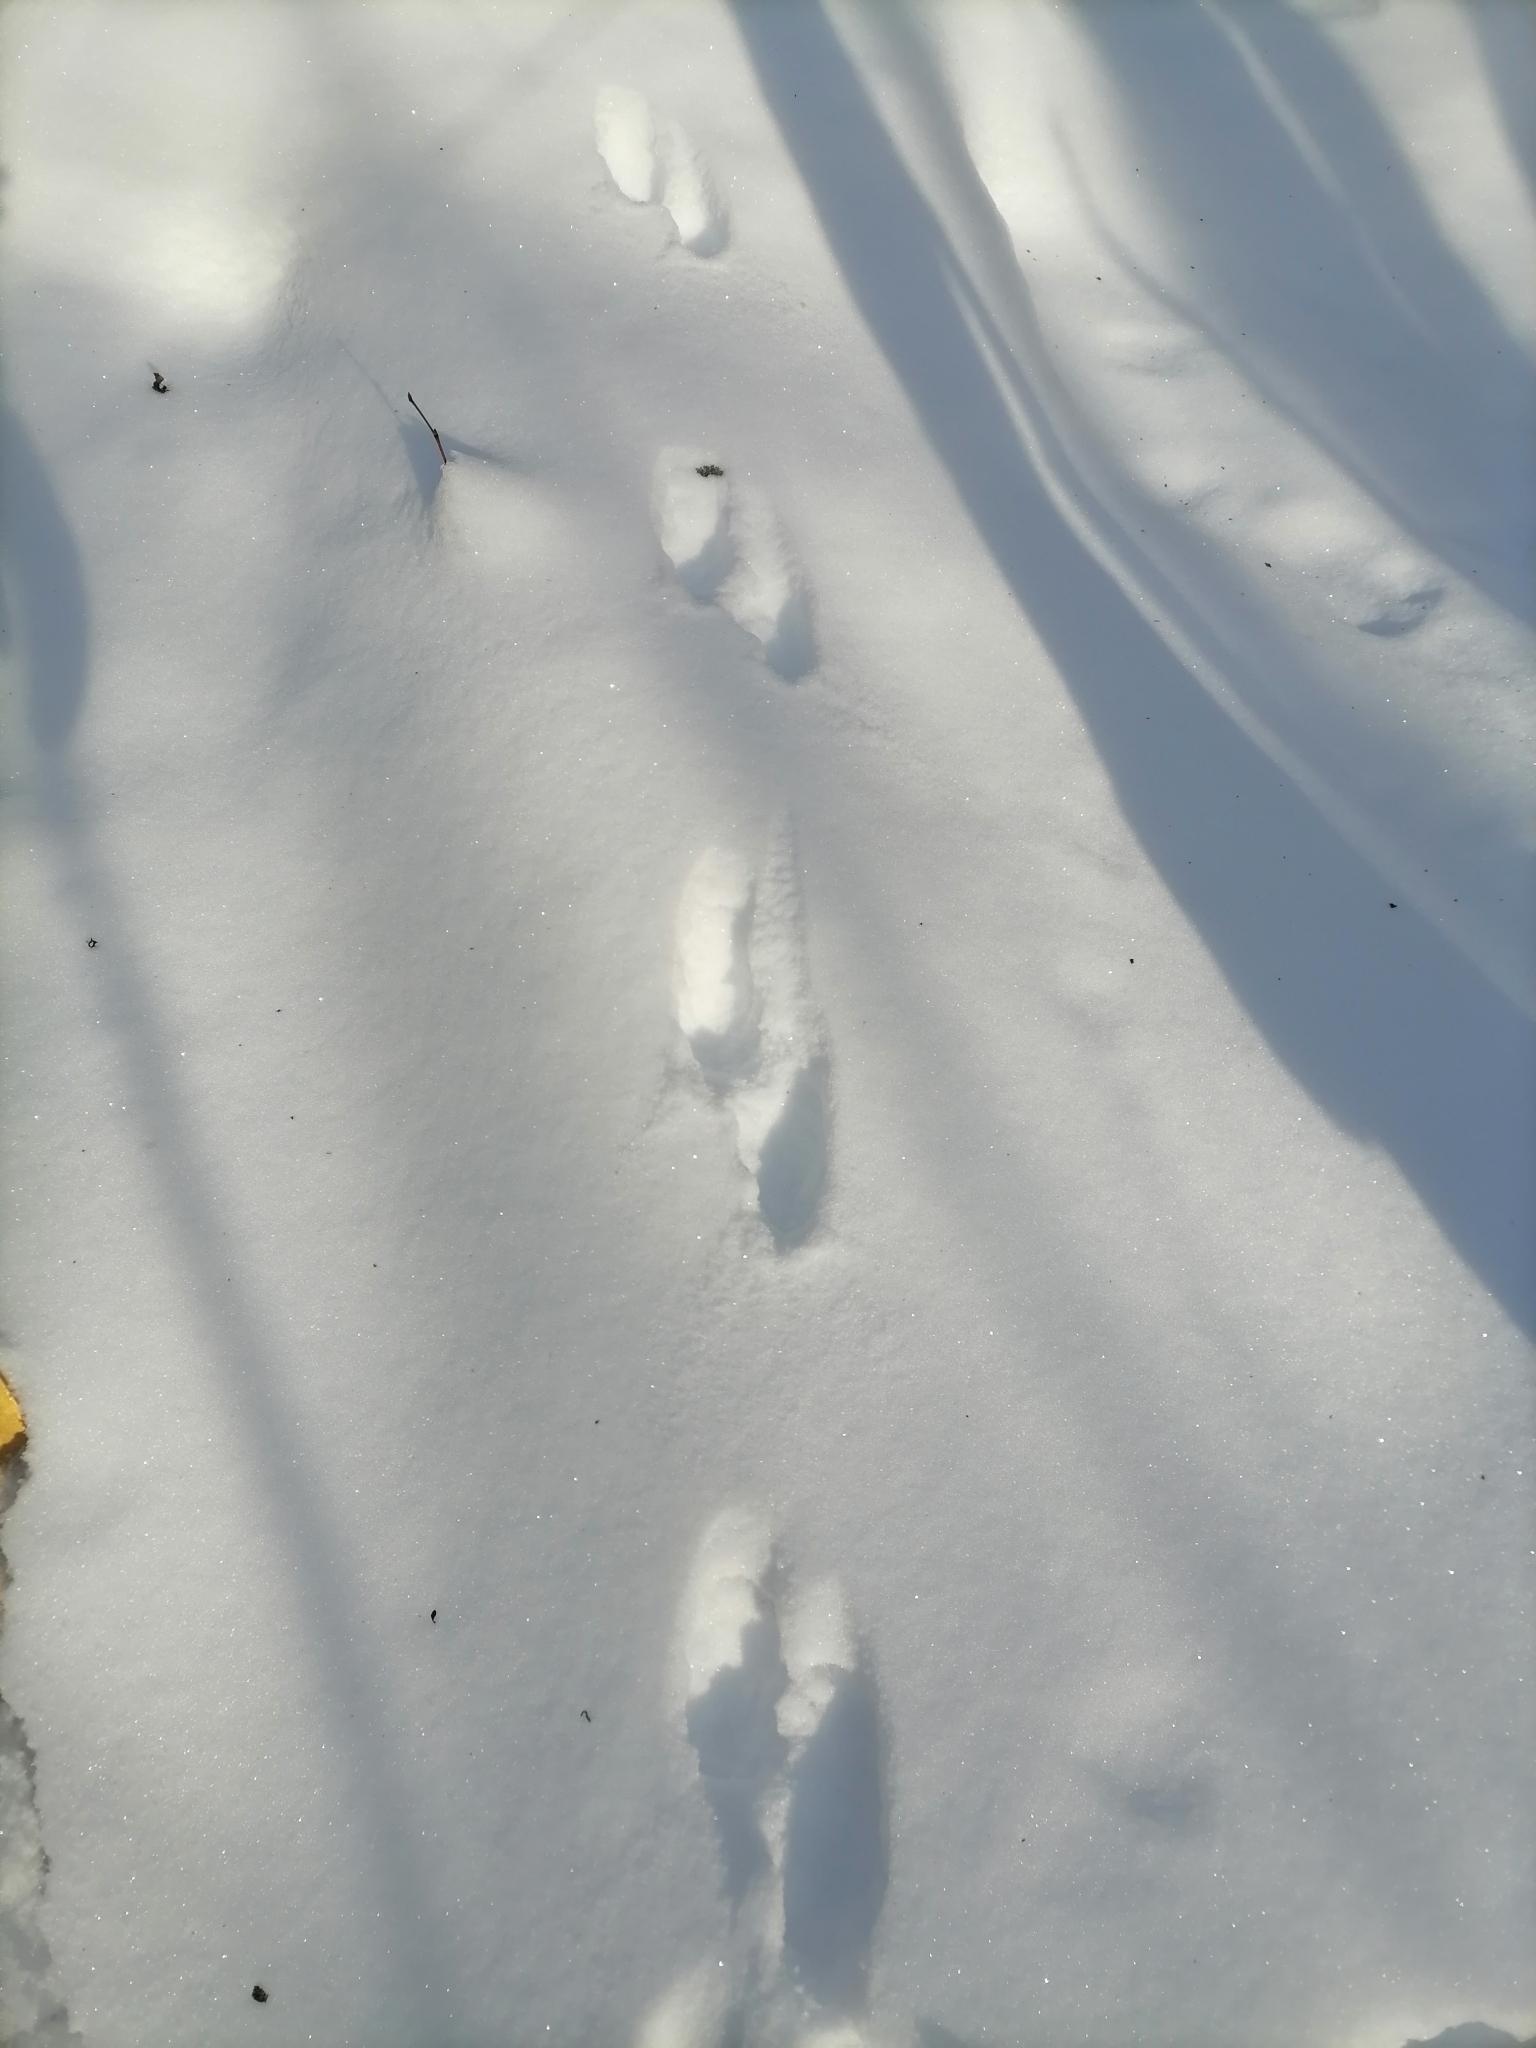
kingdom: Animalia
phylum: Chordata
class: Mammalia
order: Carnivora
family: Mustelidae
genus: Martes
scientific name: Martes martes
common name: European pine marten
